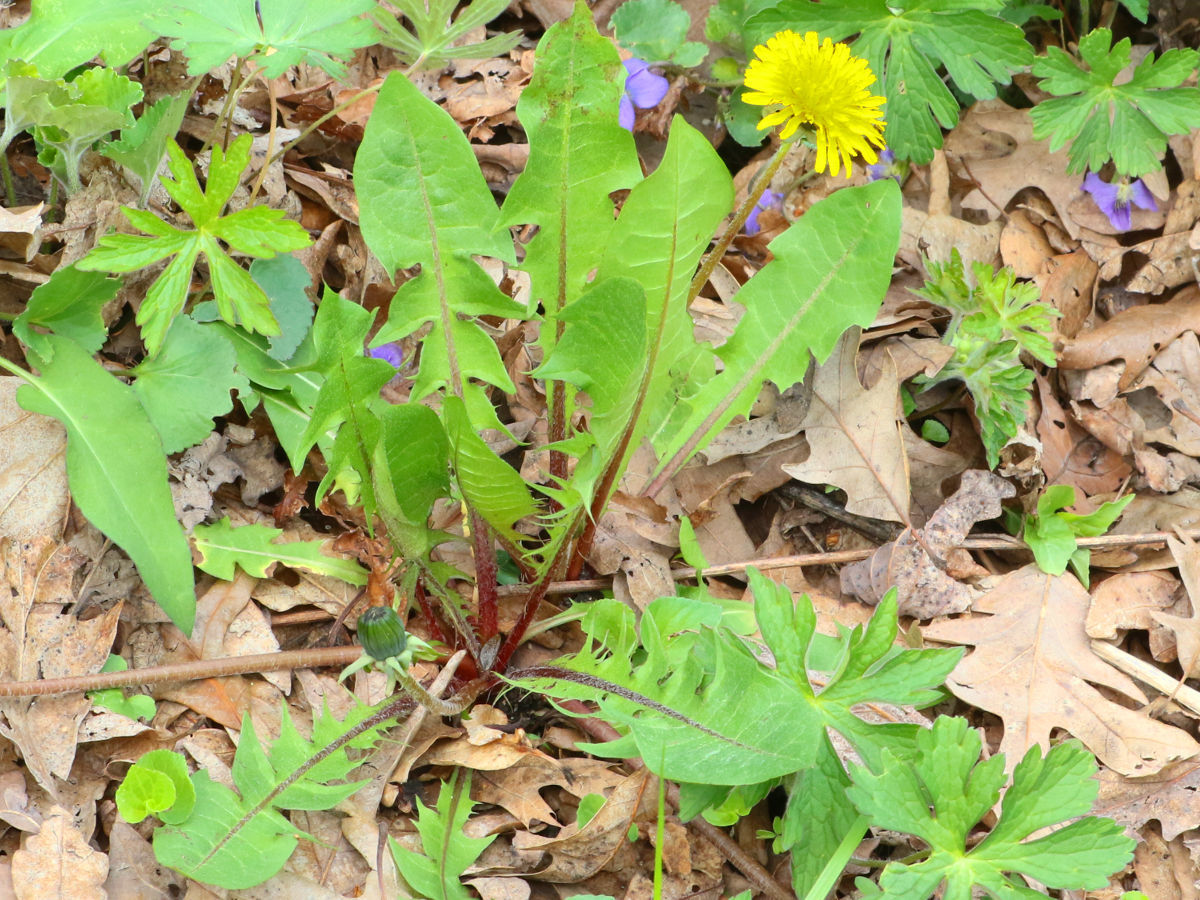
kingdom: Plantae
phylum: Tracheophyta
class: Magnoliopsida
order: Asterales
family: Asteraceae
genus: Taraxacum
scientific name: Taraxacum officinale
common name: Common dandelion
